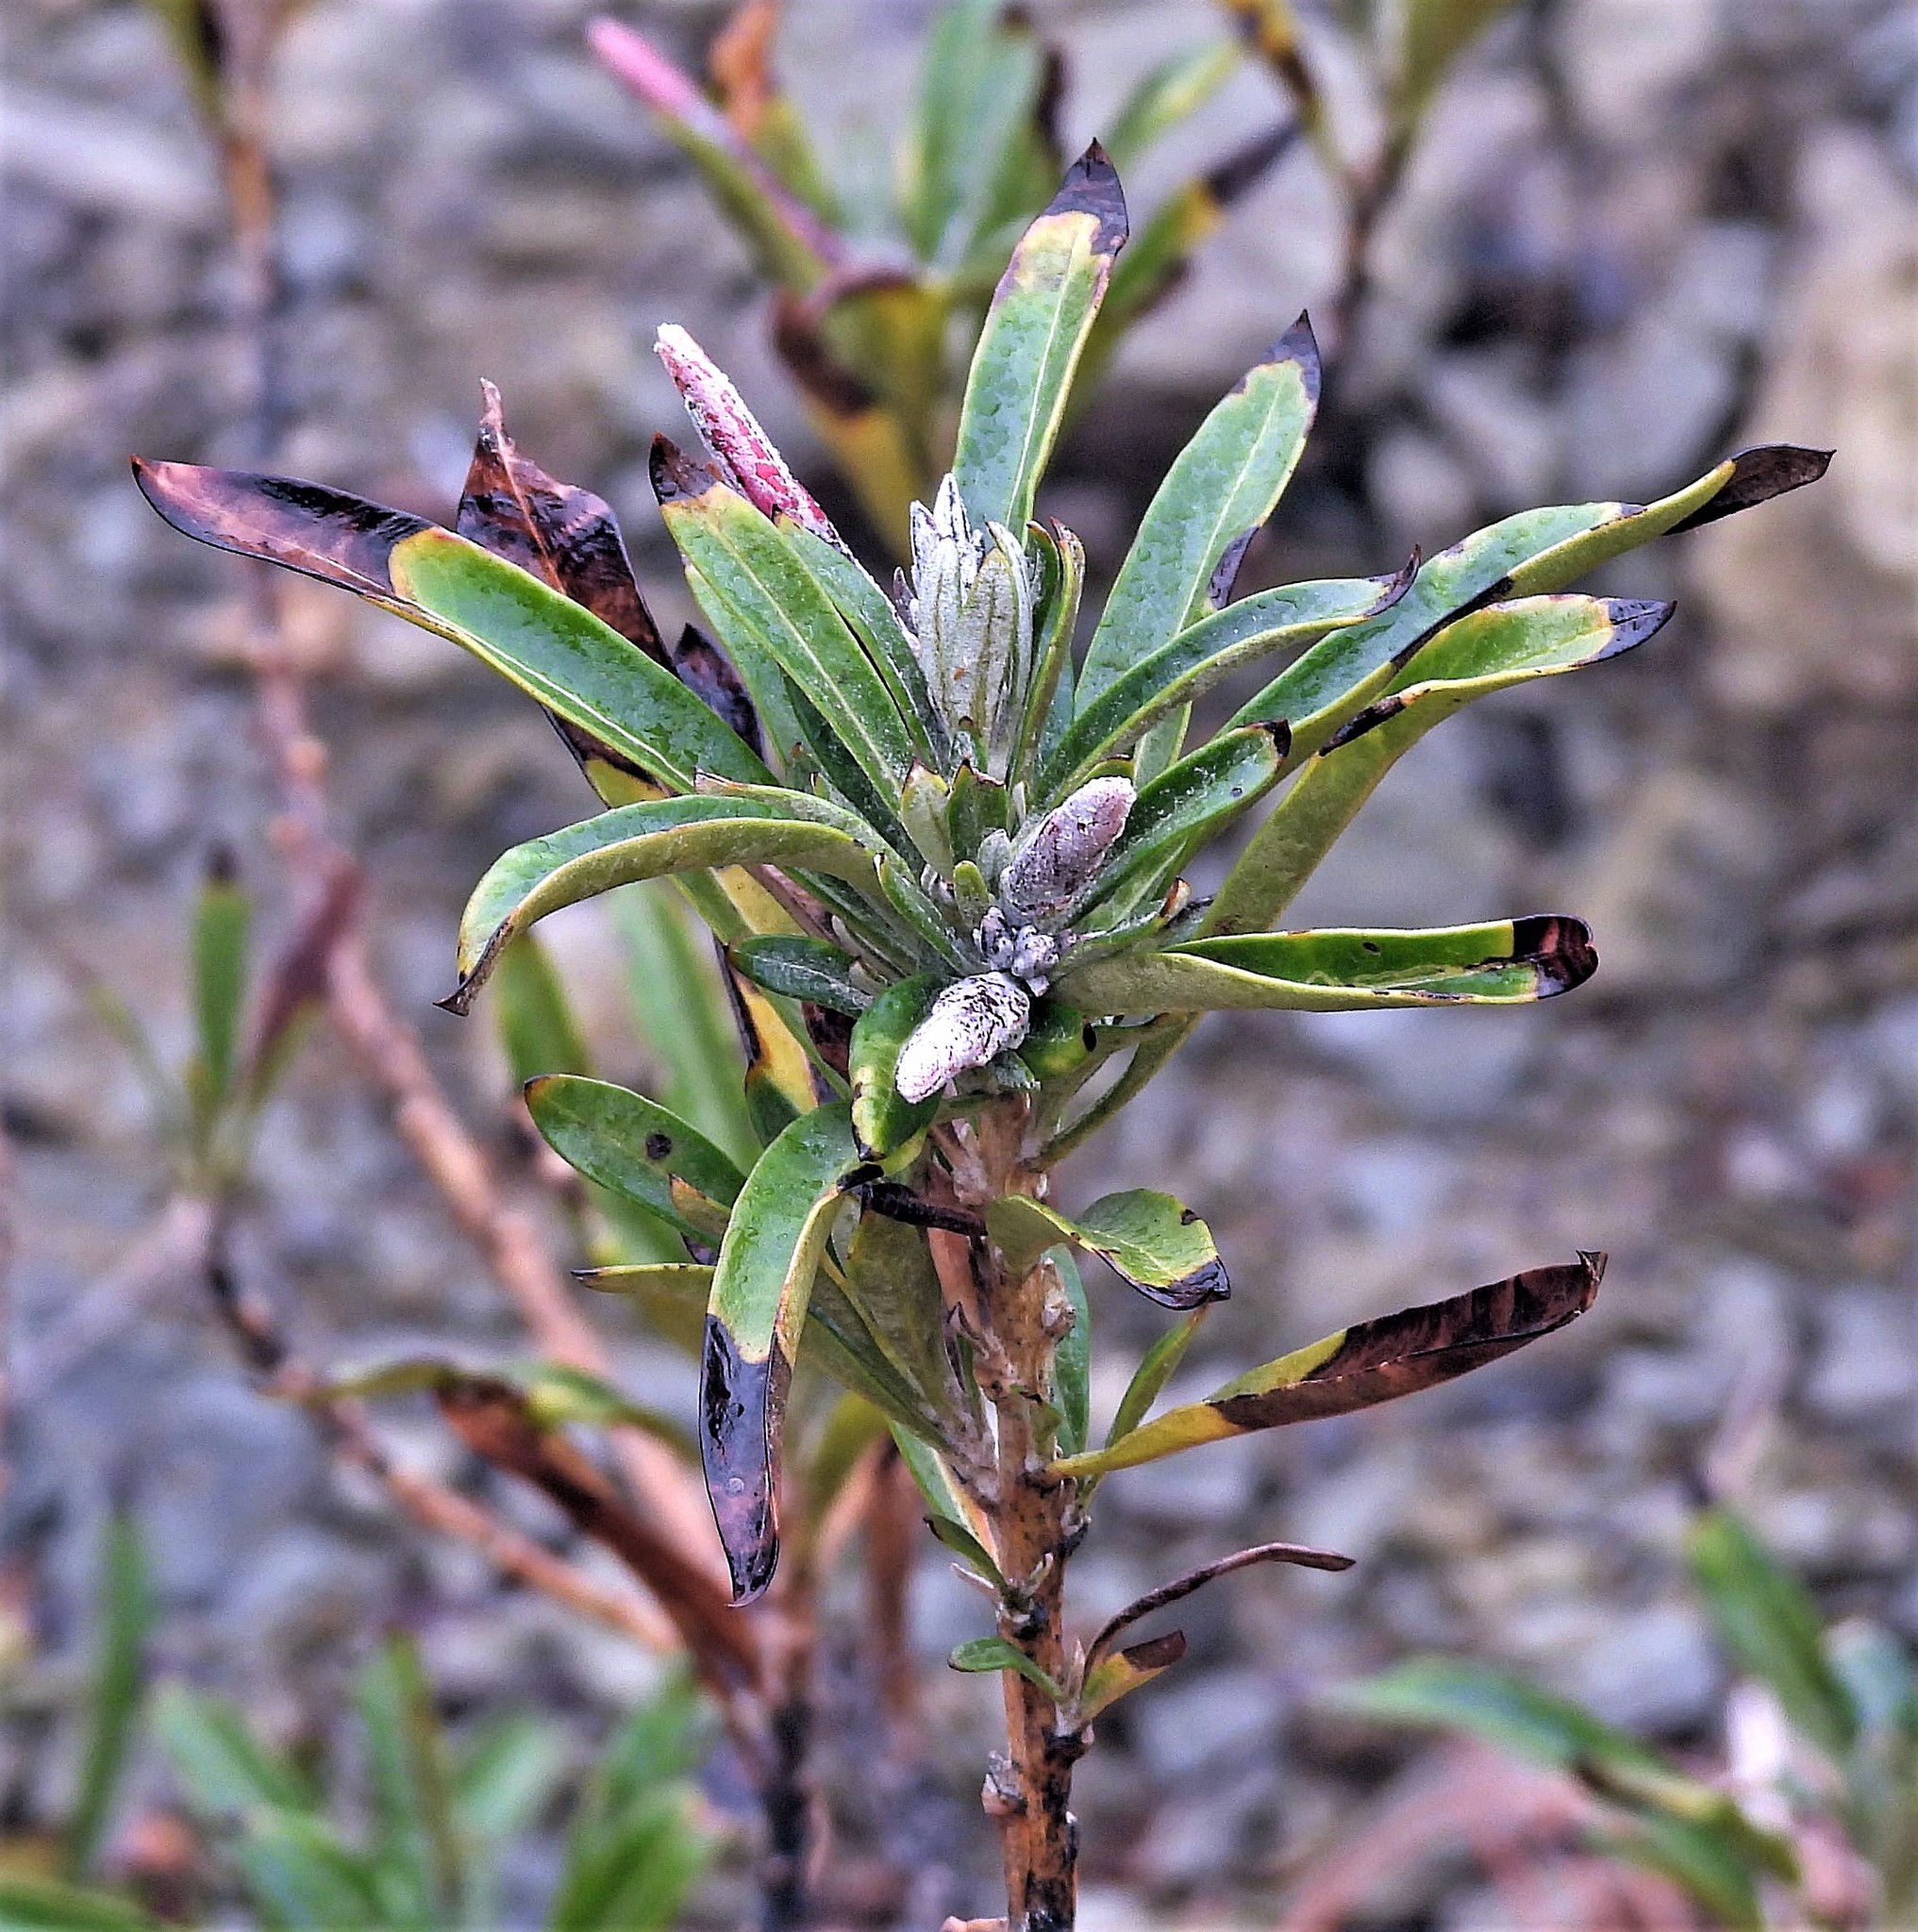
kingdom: Plantae
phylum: Tracheophyta
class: Magnoliopsida
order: Asterales
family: Asteraceae
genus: Mutisia
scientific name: Mutisia orbignyana
